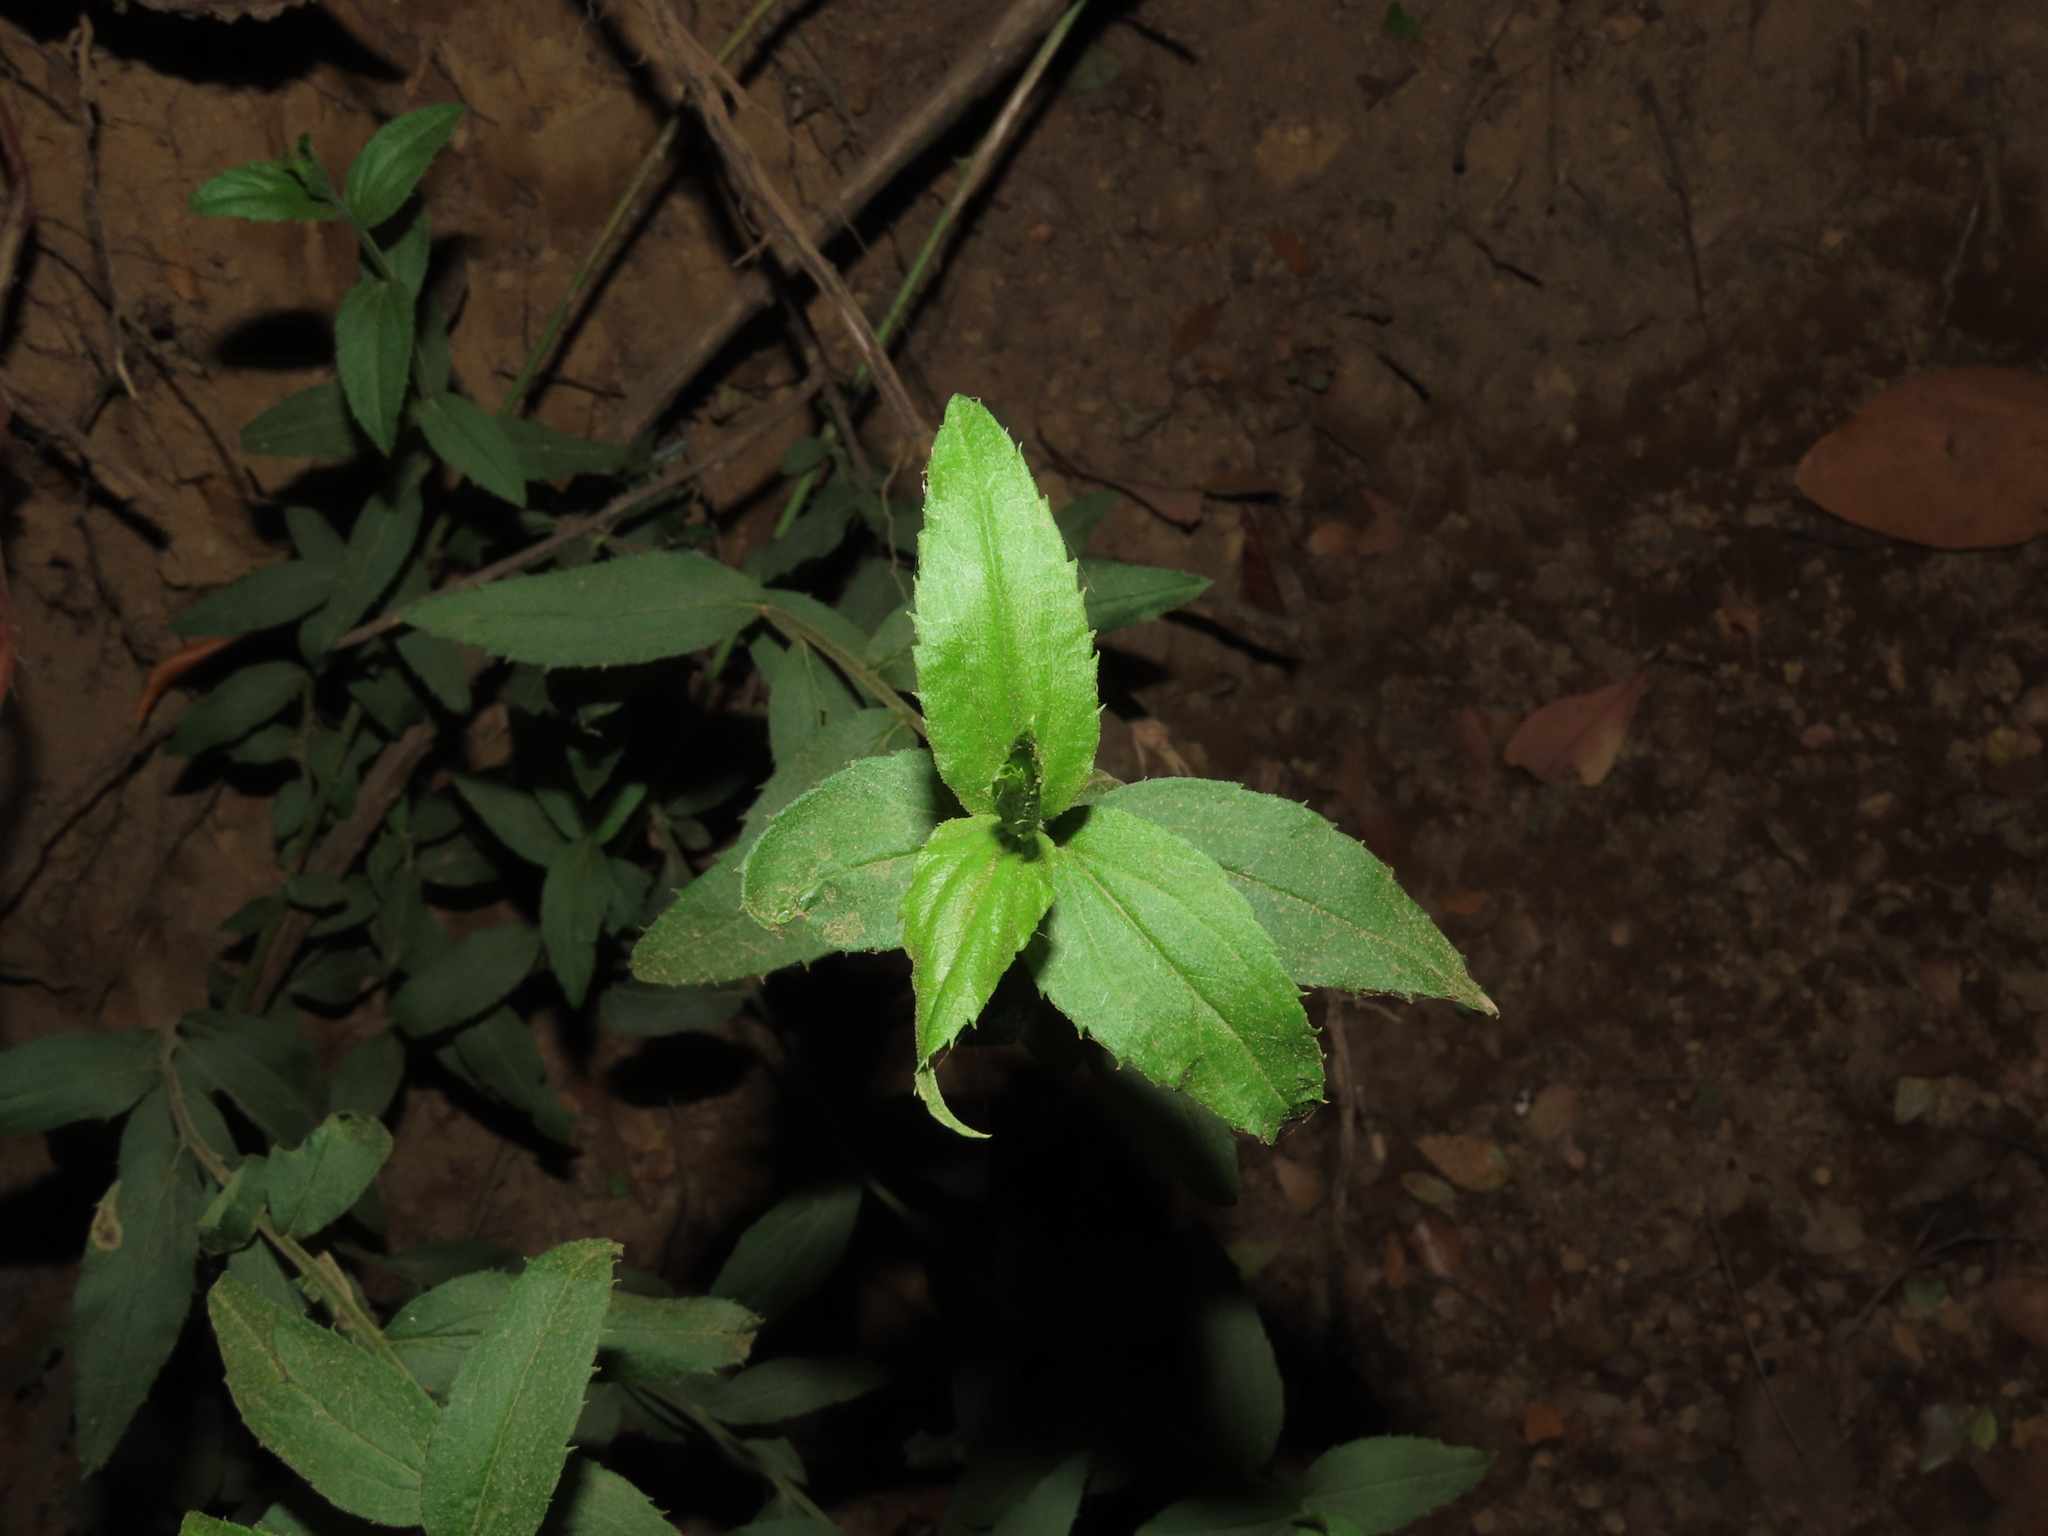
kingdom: Plantae
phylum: Tracheophyta
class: Magnoliopsida
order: Asterales
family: Asteraceae
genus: Baccharis
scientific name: Baccharis racemosa
